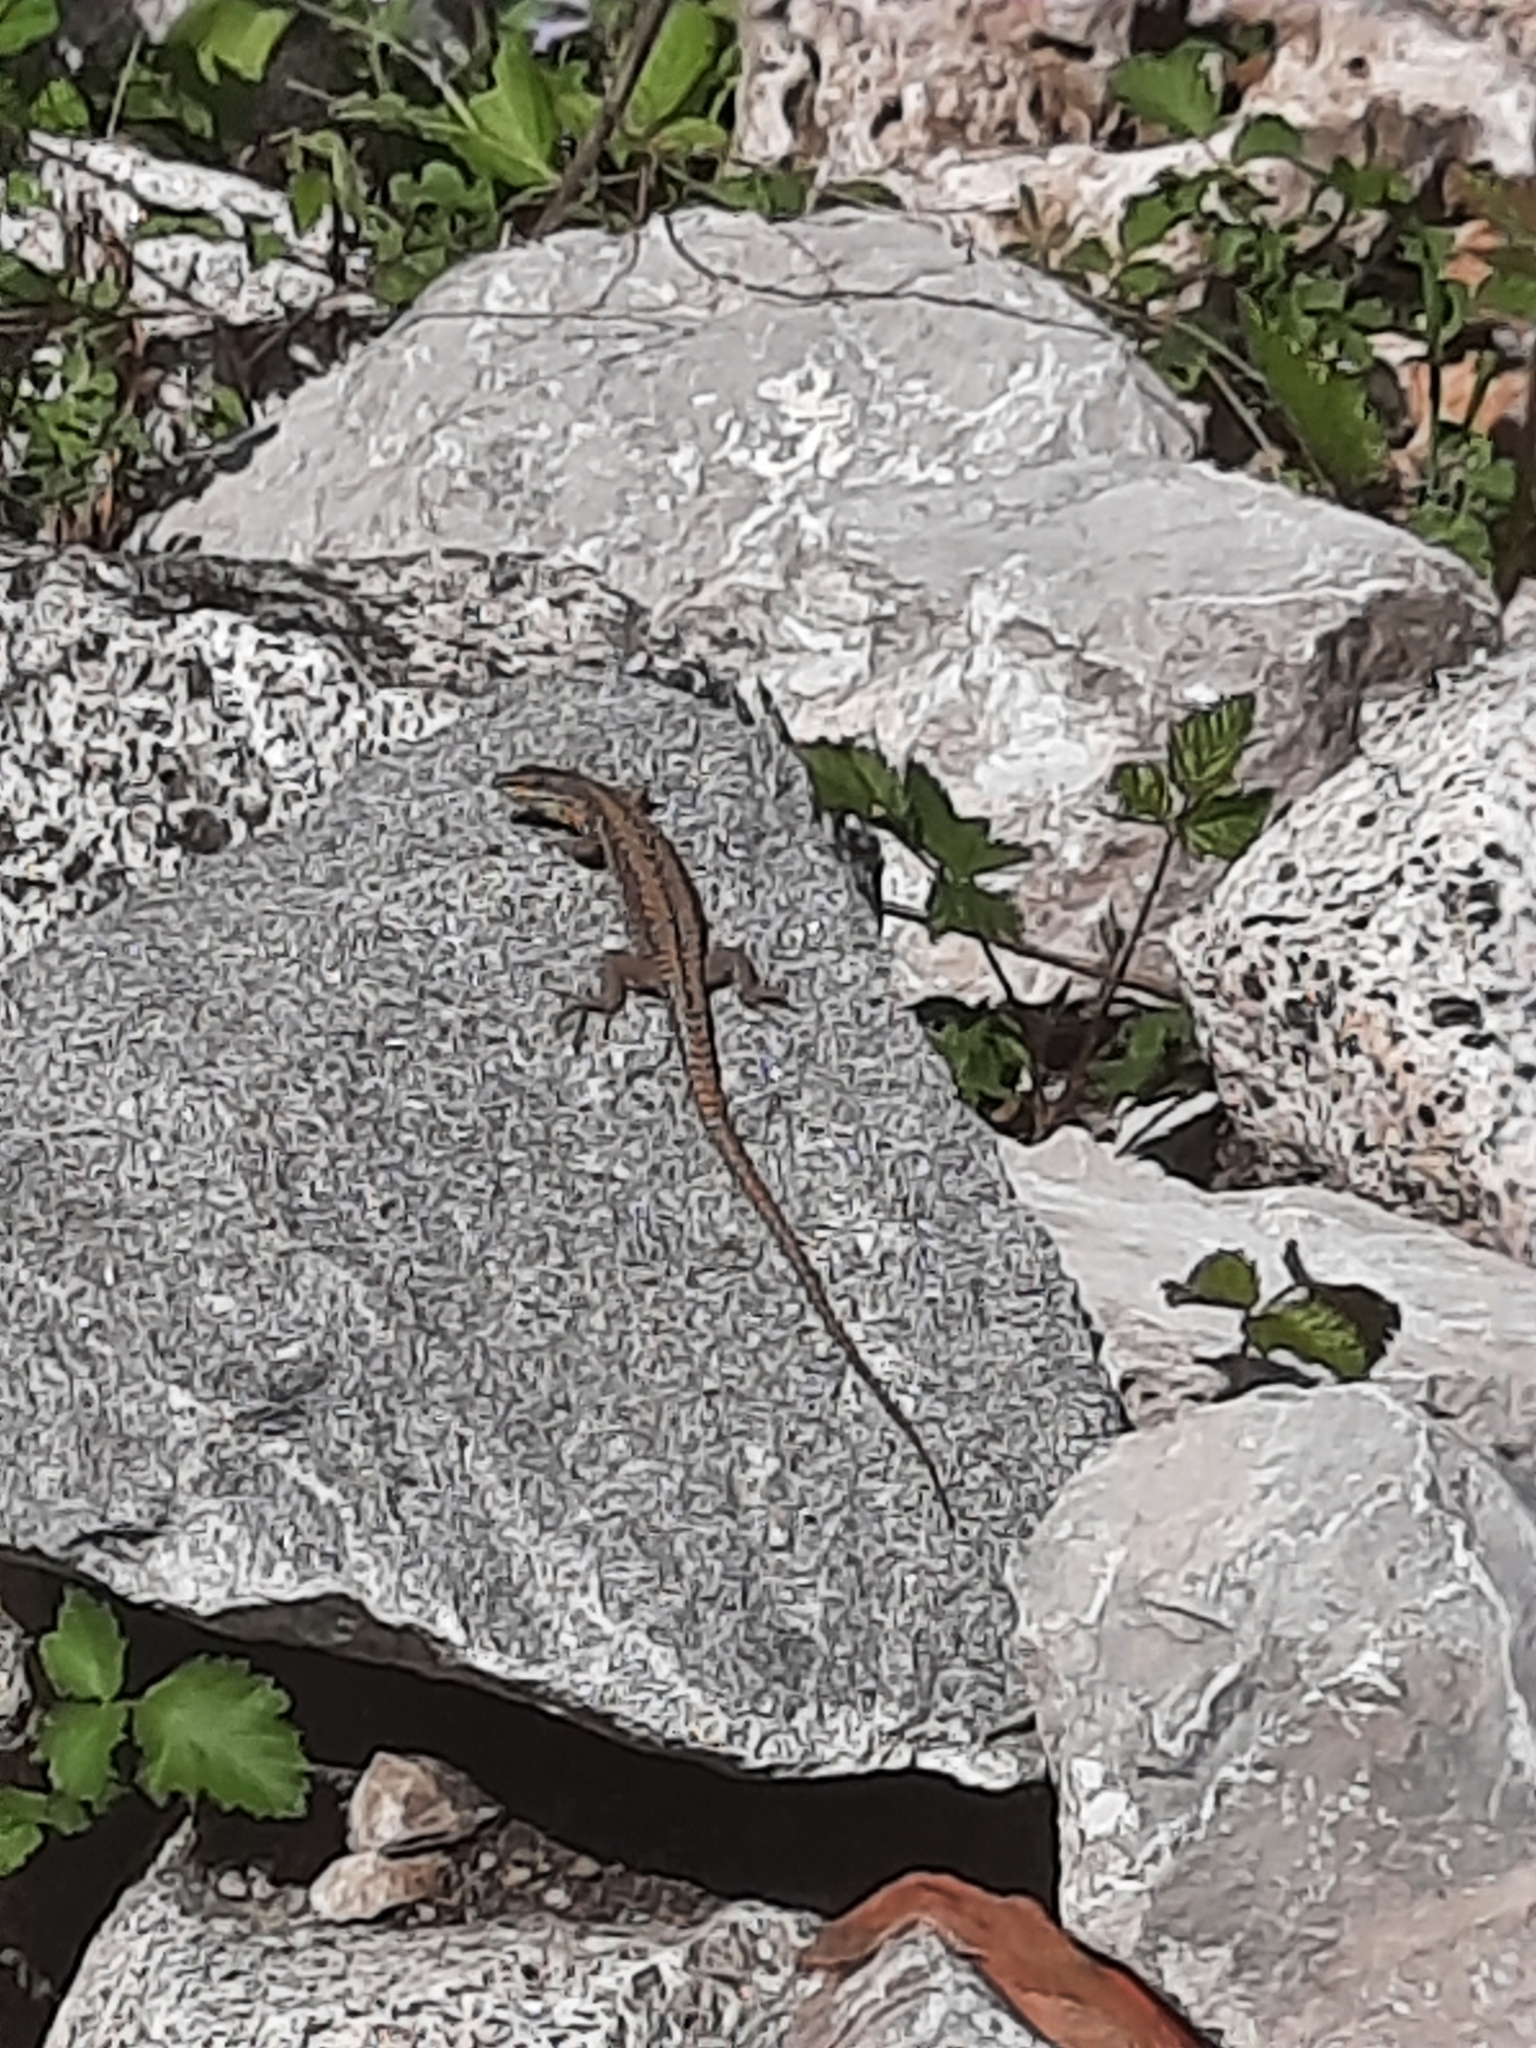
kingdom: Animalia
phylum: Chordata
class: Squamata
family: Lacertidae
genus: Podarcis
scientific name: Podarcis muralis
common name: Common wall lizard
